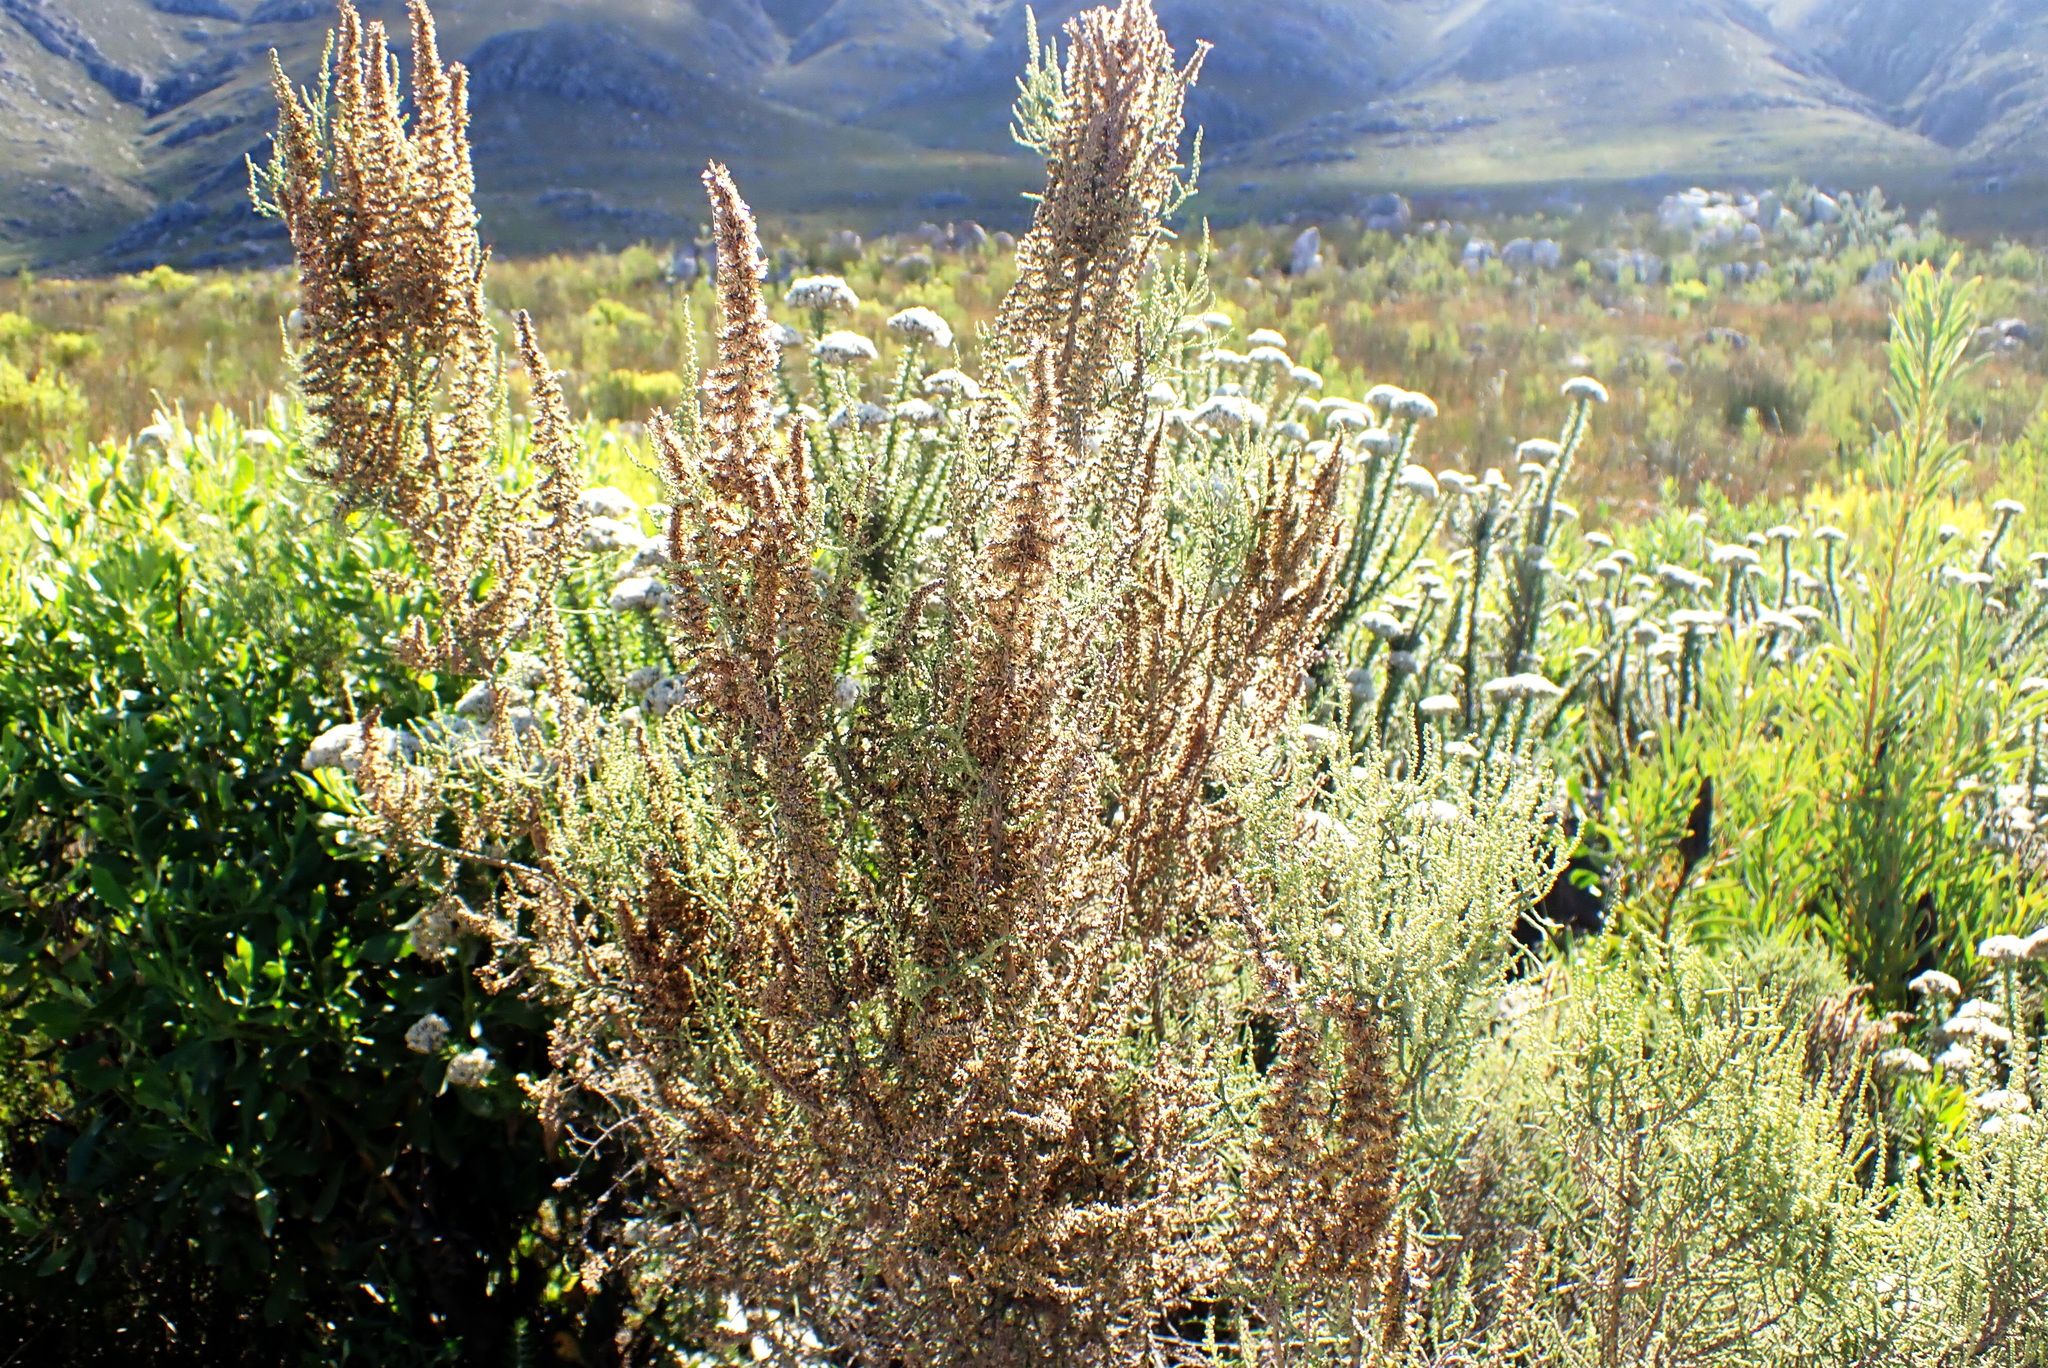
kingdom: Plantae
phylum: Tracheophyta
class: Magnoliopsida
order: Asterales
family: Asteraceae
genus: Seriphium
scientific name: Seriphium plumosum
